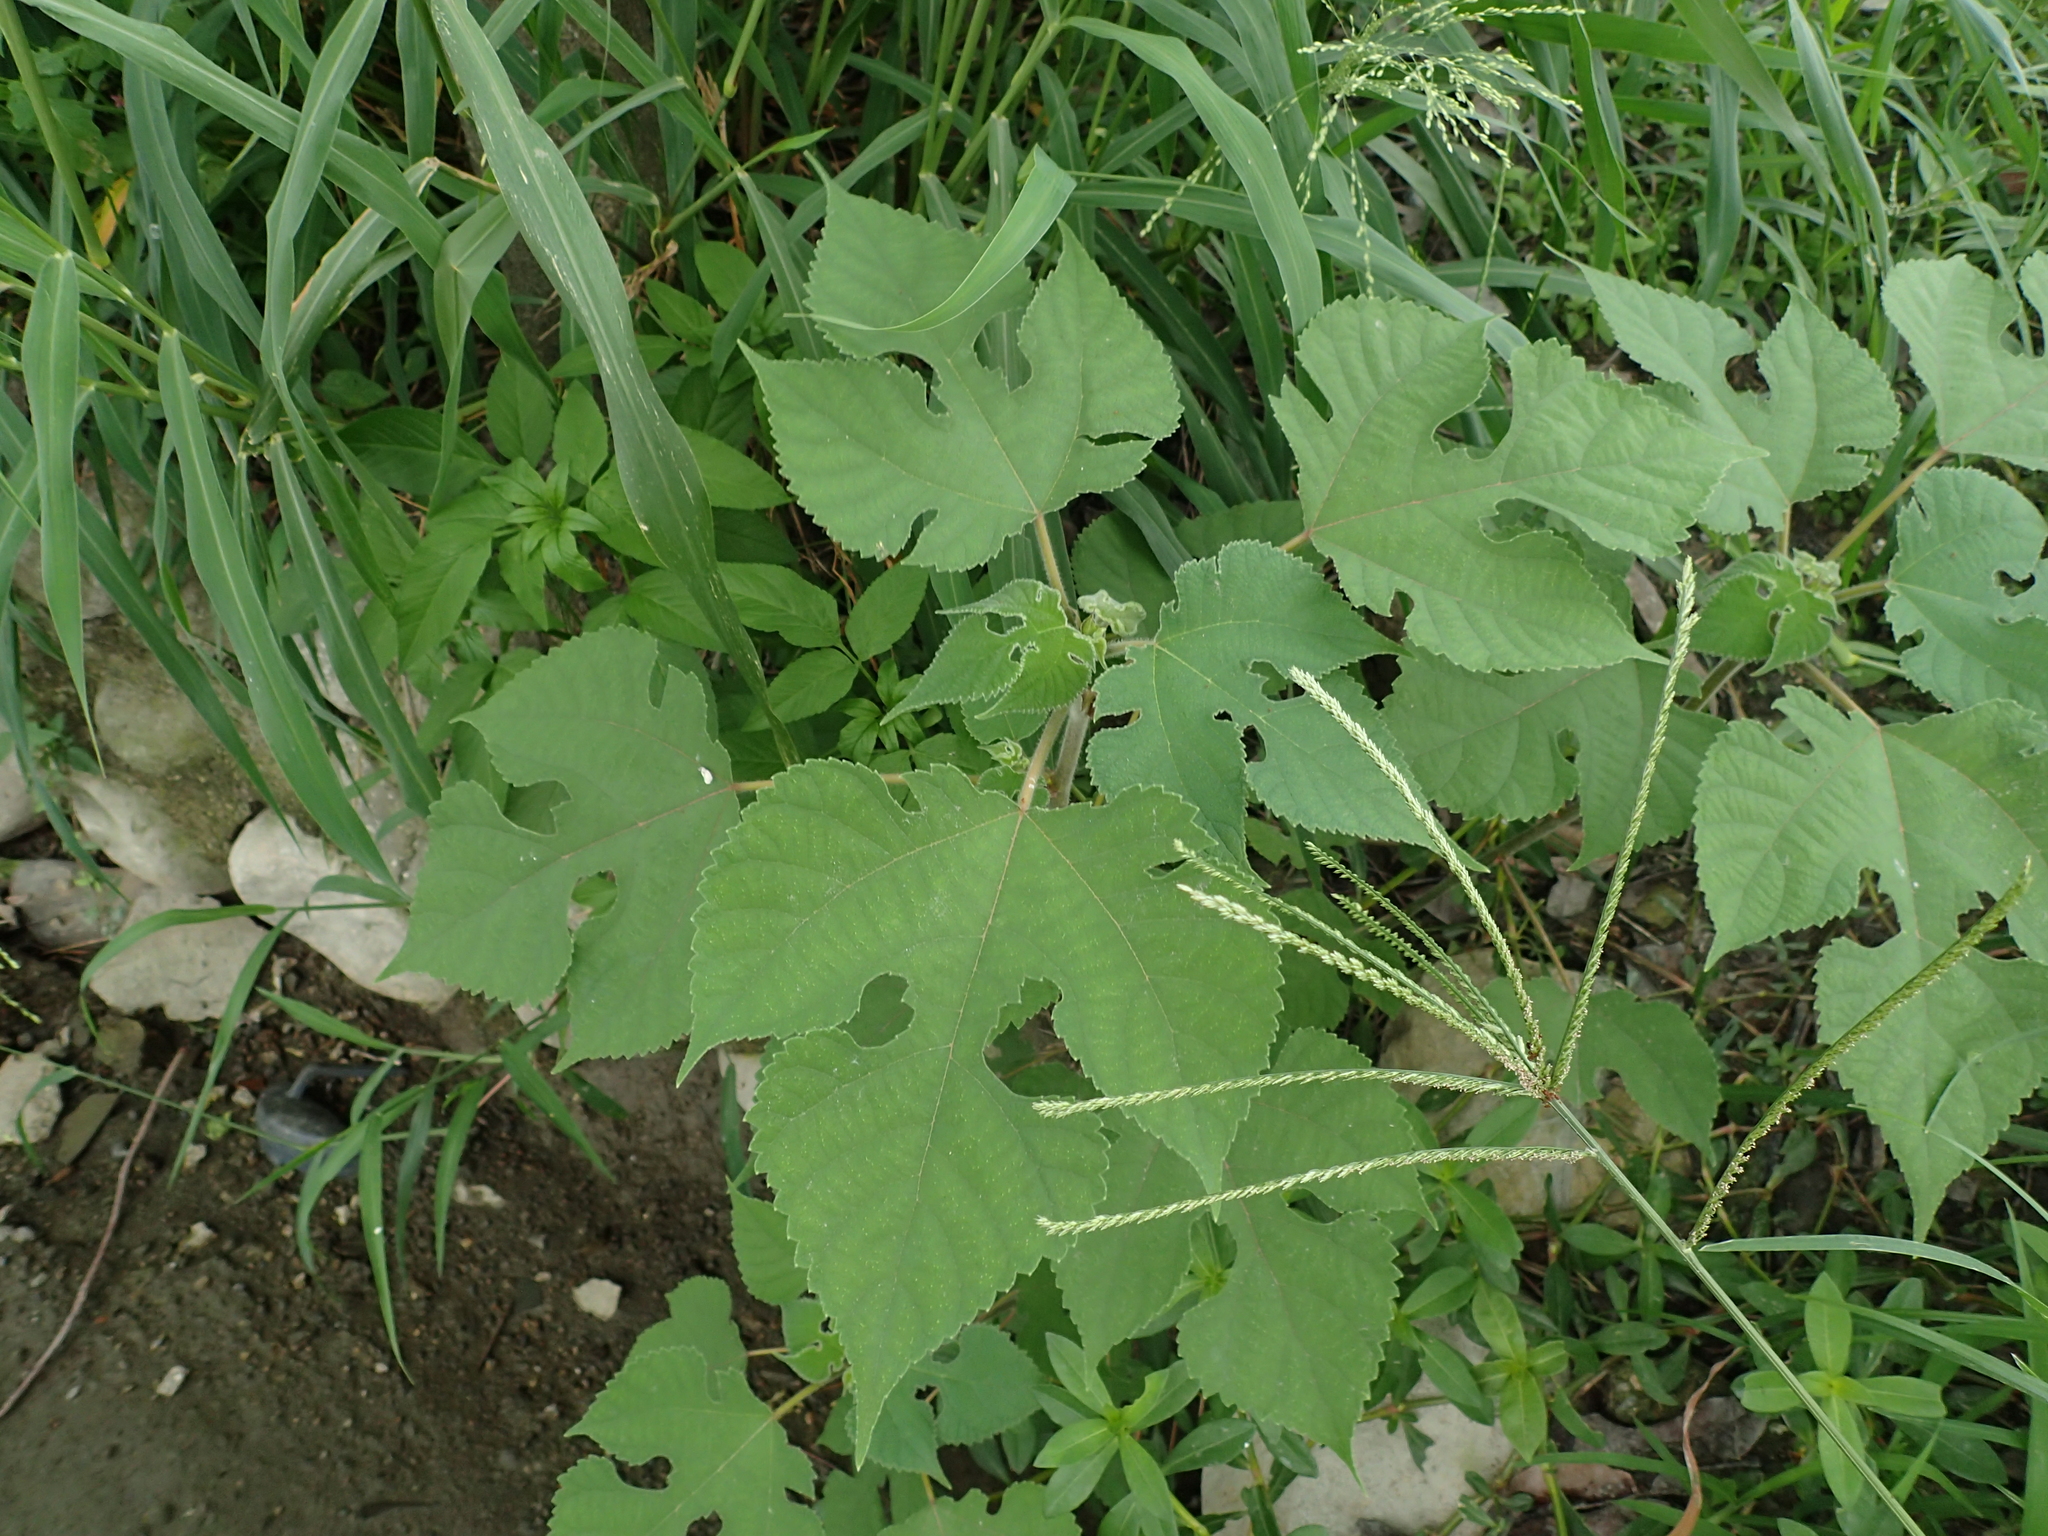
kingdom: Plantae
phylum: Tracheophyta
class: Magnoliopsida
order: Rosales
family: Moraceae
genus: Broussonetia
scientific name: Broussonetia papyrifera
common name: Paper mulberry
